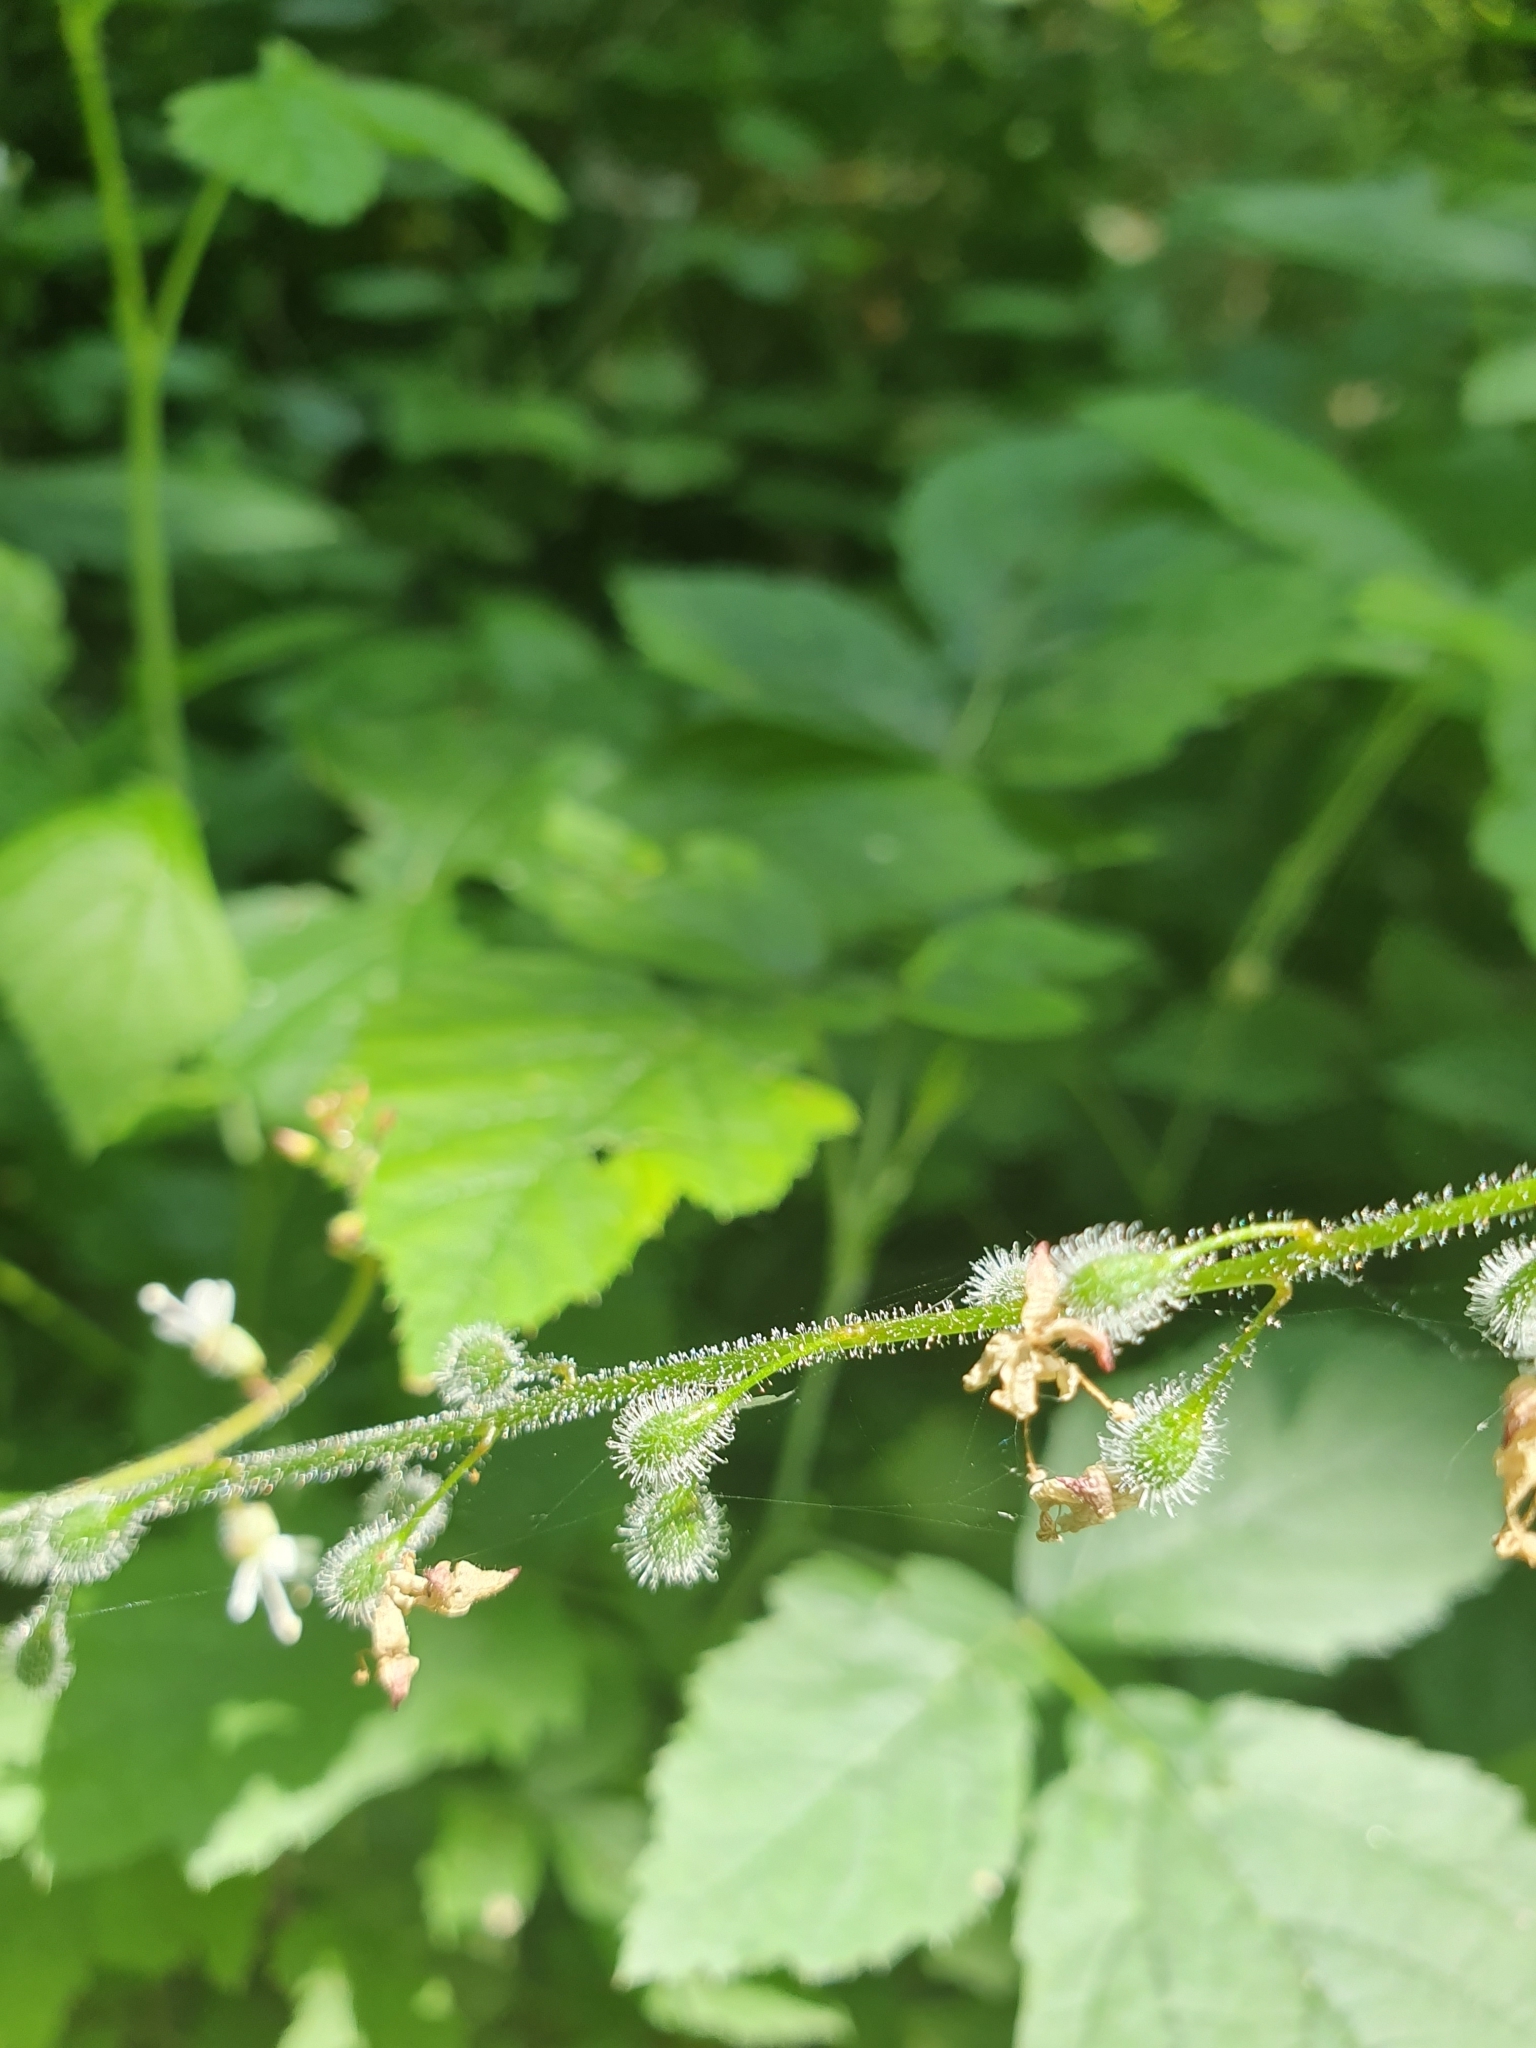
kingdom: Plantae
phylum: Tracheophyta
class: Magnoliopsida
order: Myrtales
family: Onagraceae
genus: Circaea
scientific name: Circaea lutetiana
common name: Enchanter's-nightshade
